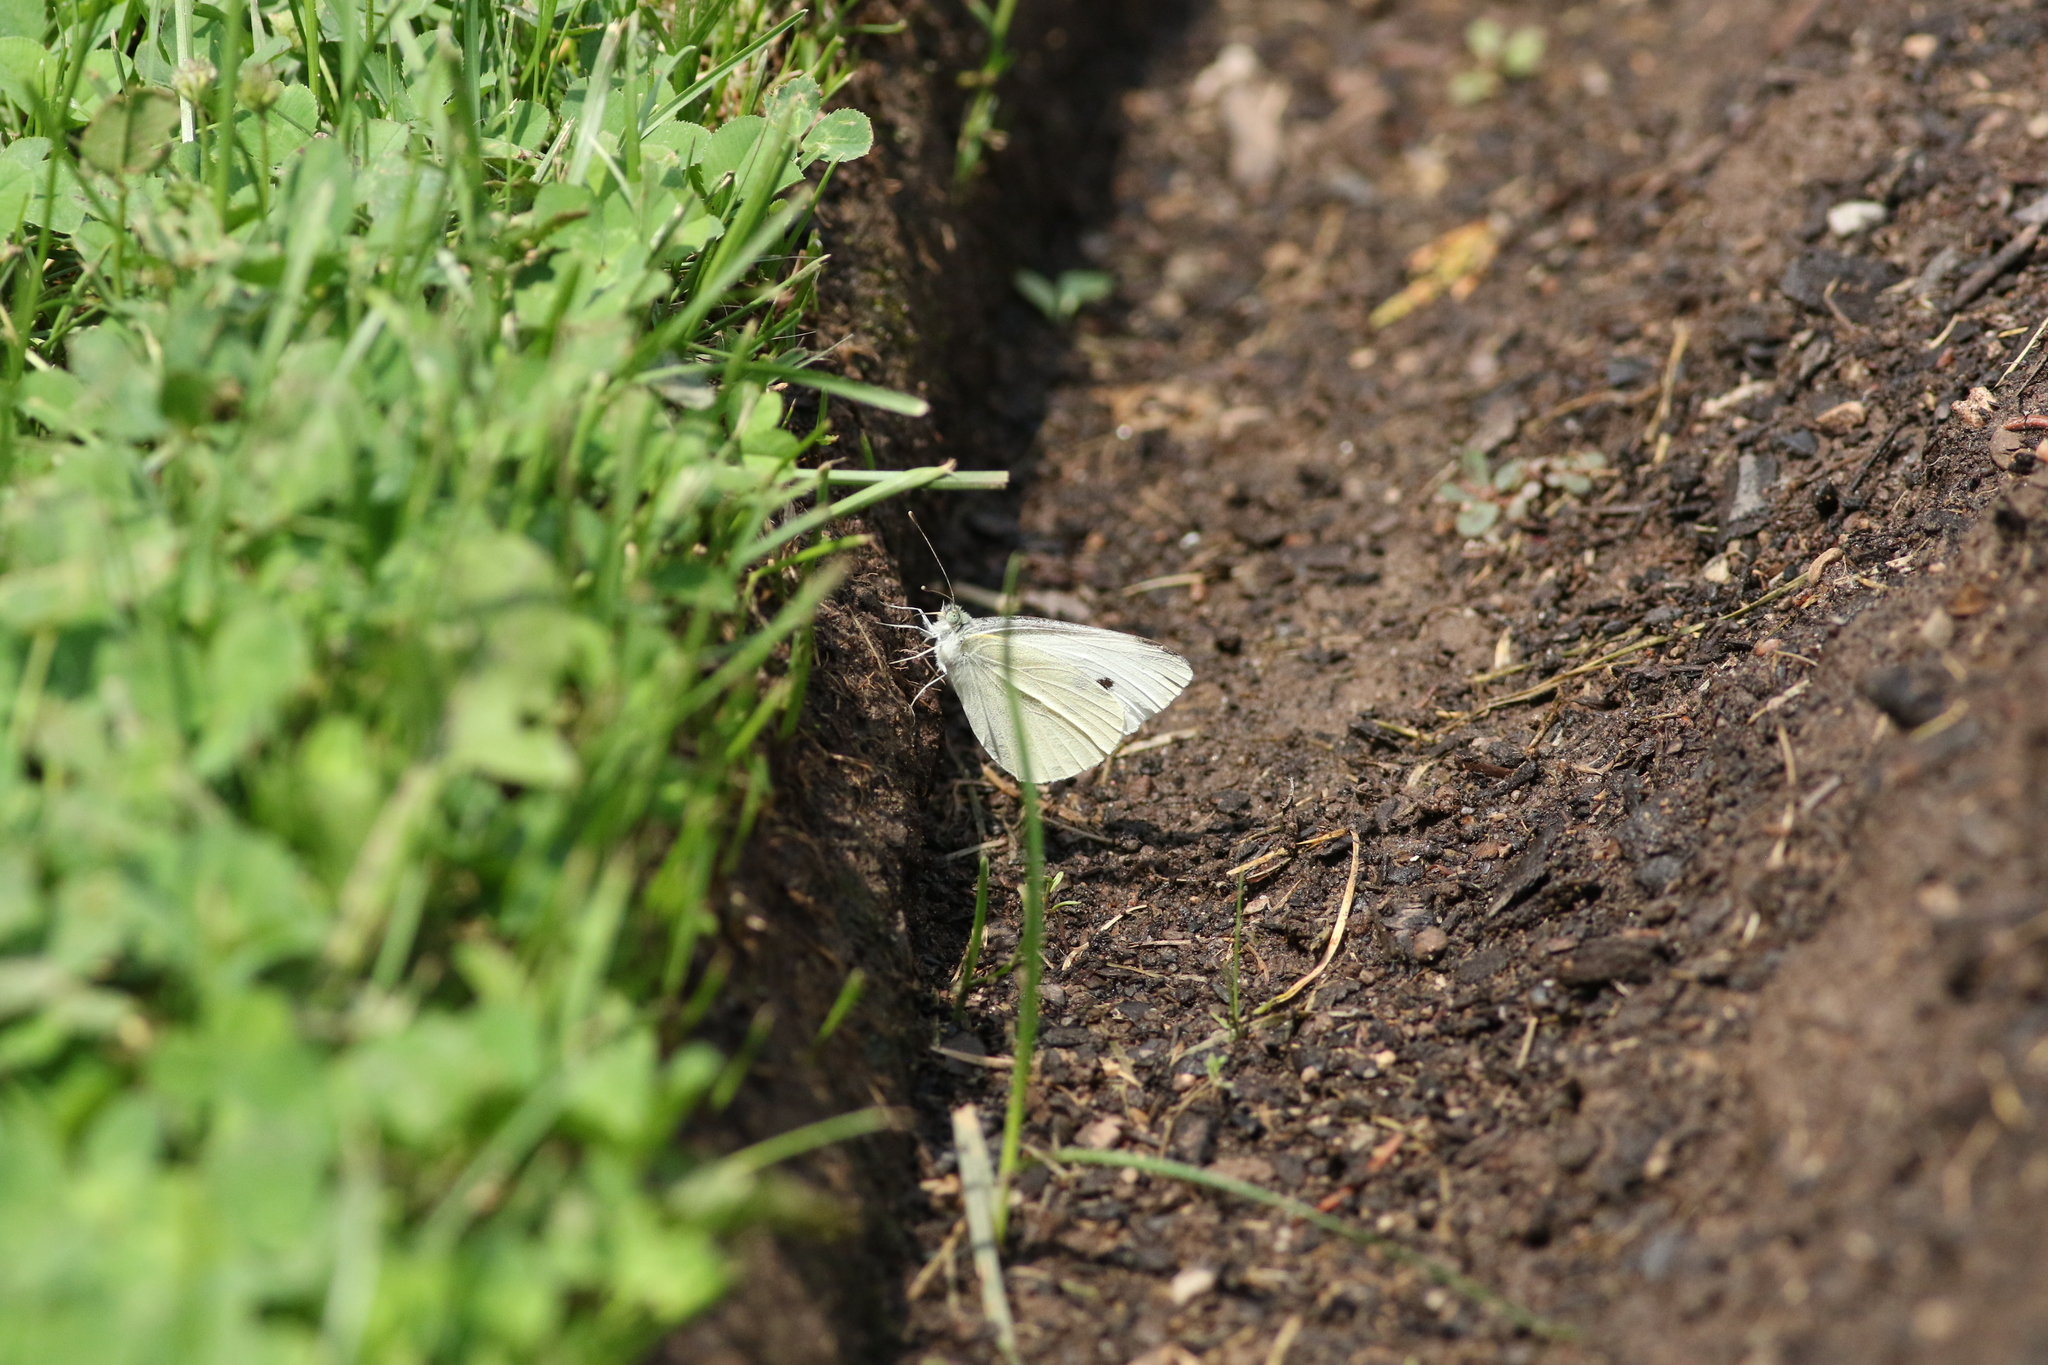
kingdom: Animalia
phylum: Arthropoda
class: Insecta
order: Lepidoptera
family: Pieridae
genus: Pieris
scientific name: Pieris rapae
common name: Small white
